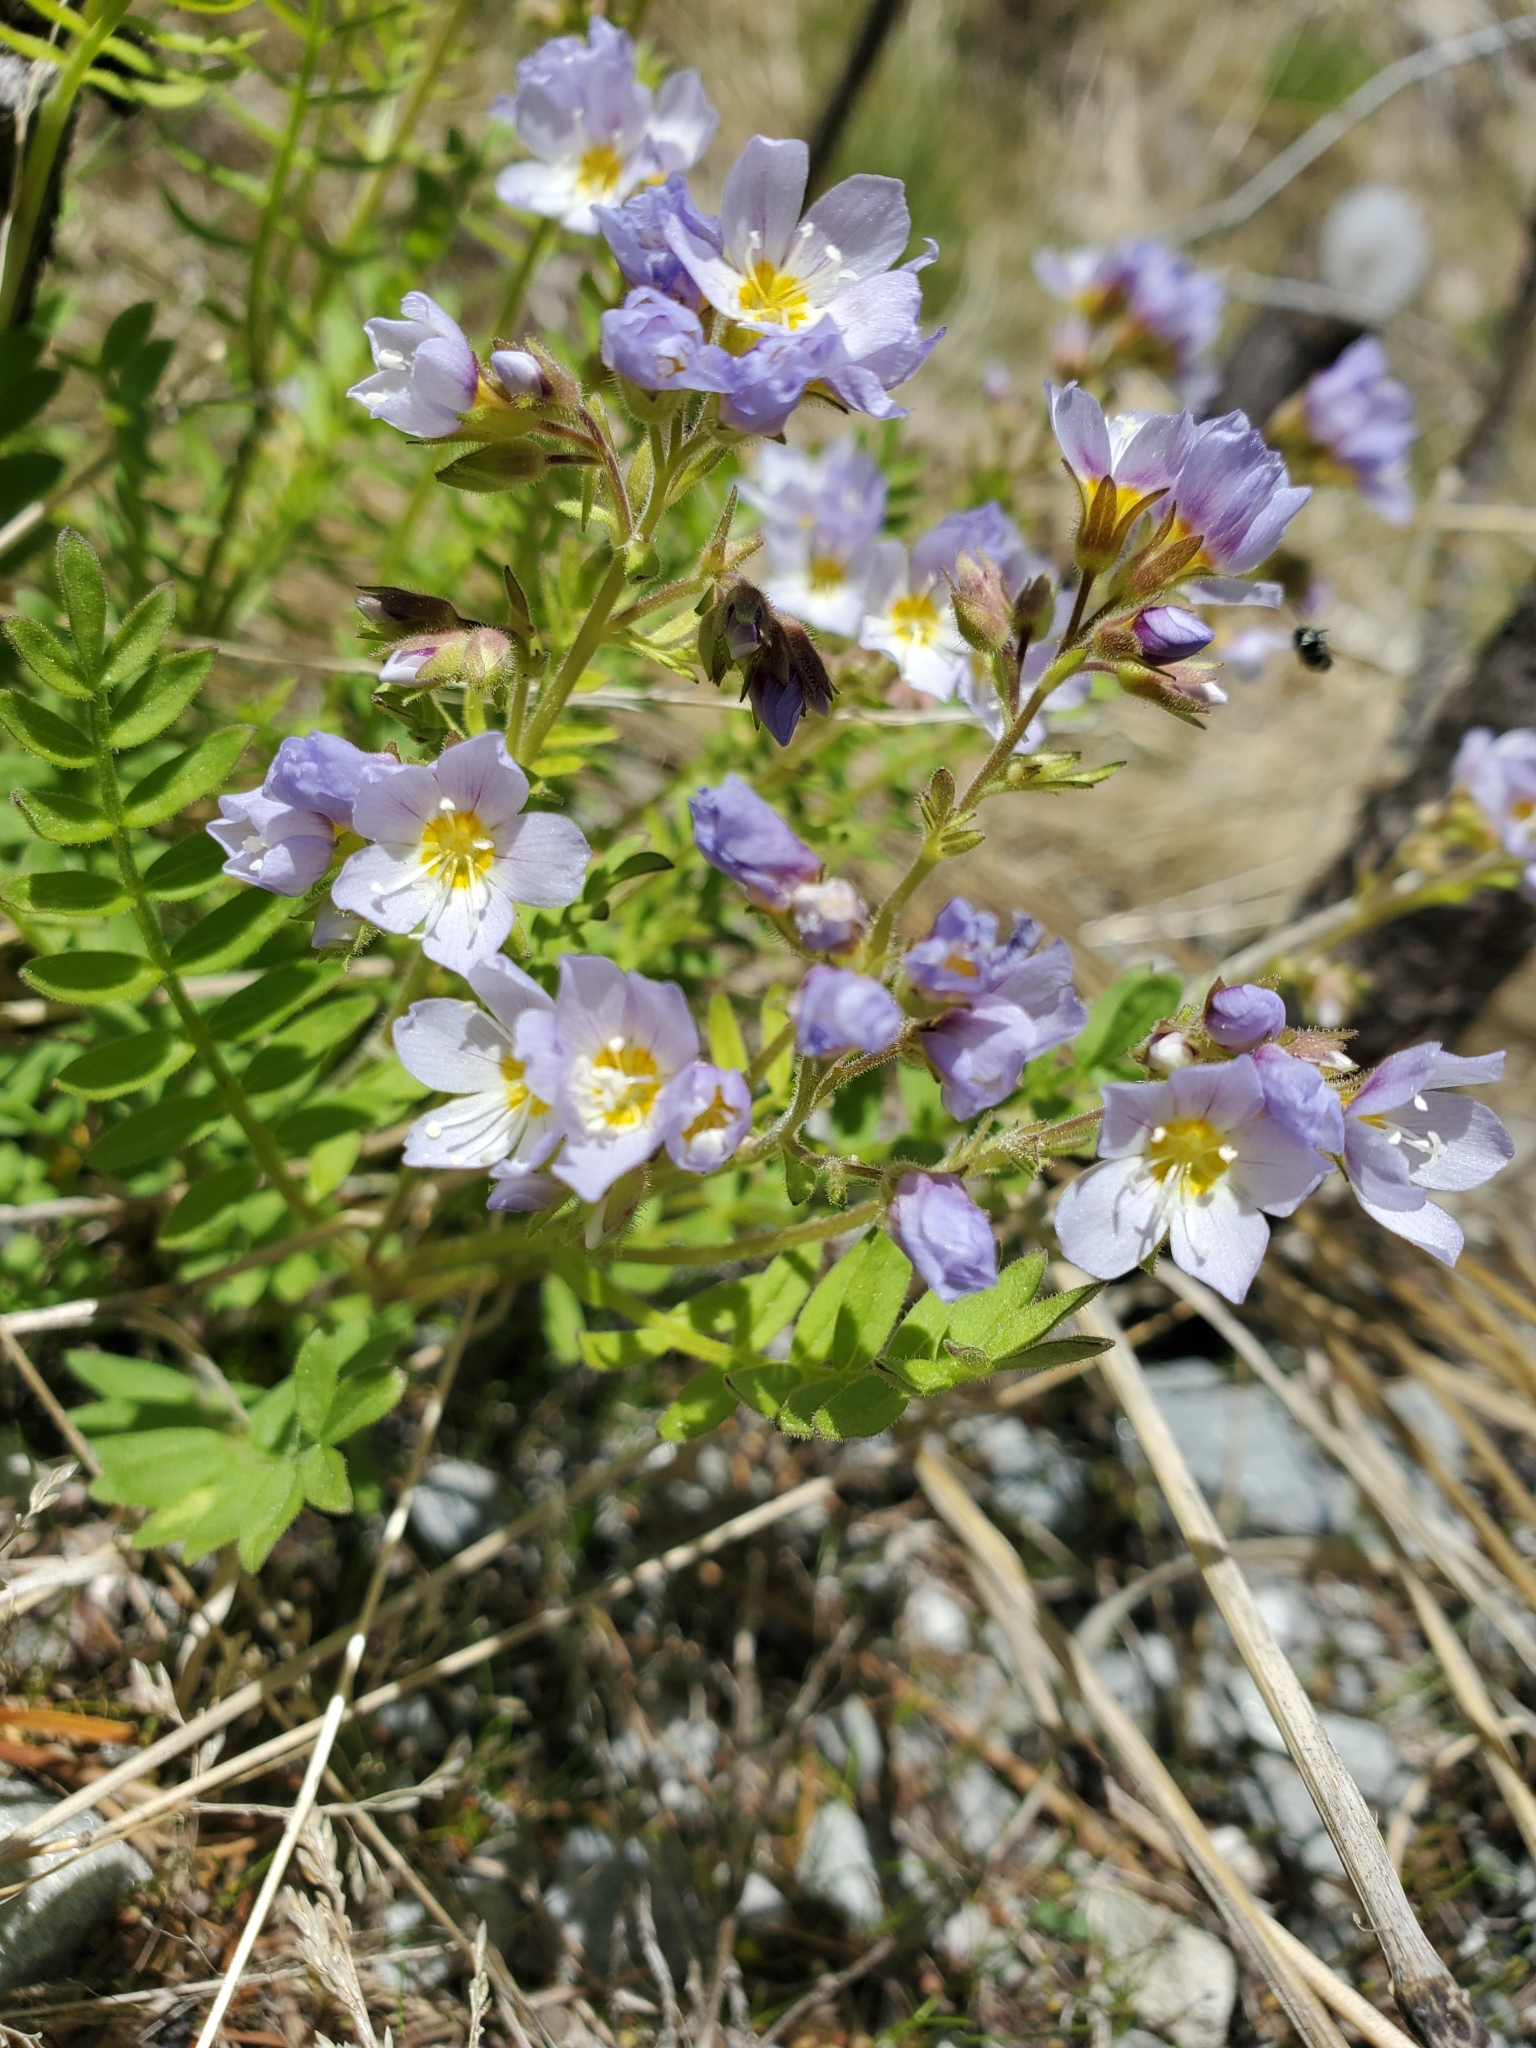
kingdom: Plantae
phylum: Tracheophyta
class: Magnoliopsida
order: Ericales
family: Polemoniaceae
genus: Polemonium
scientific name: Polemonium californicum
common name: California jacob's ladder
